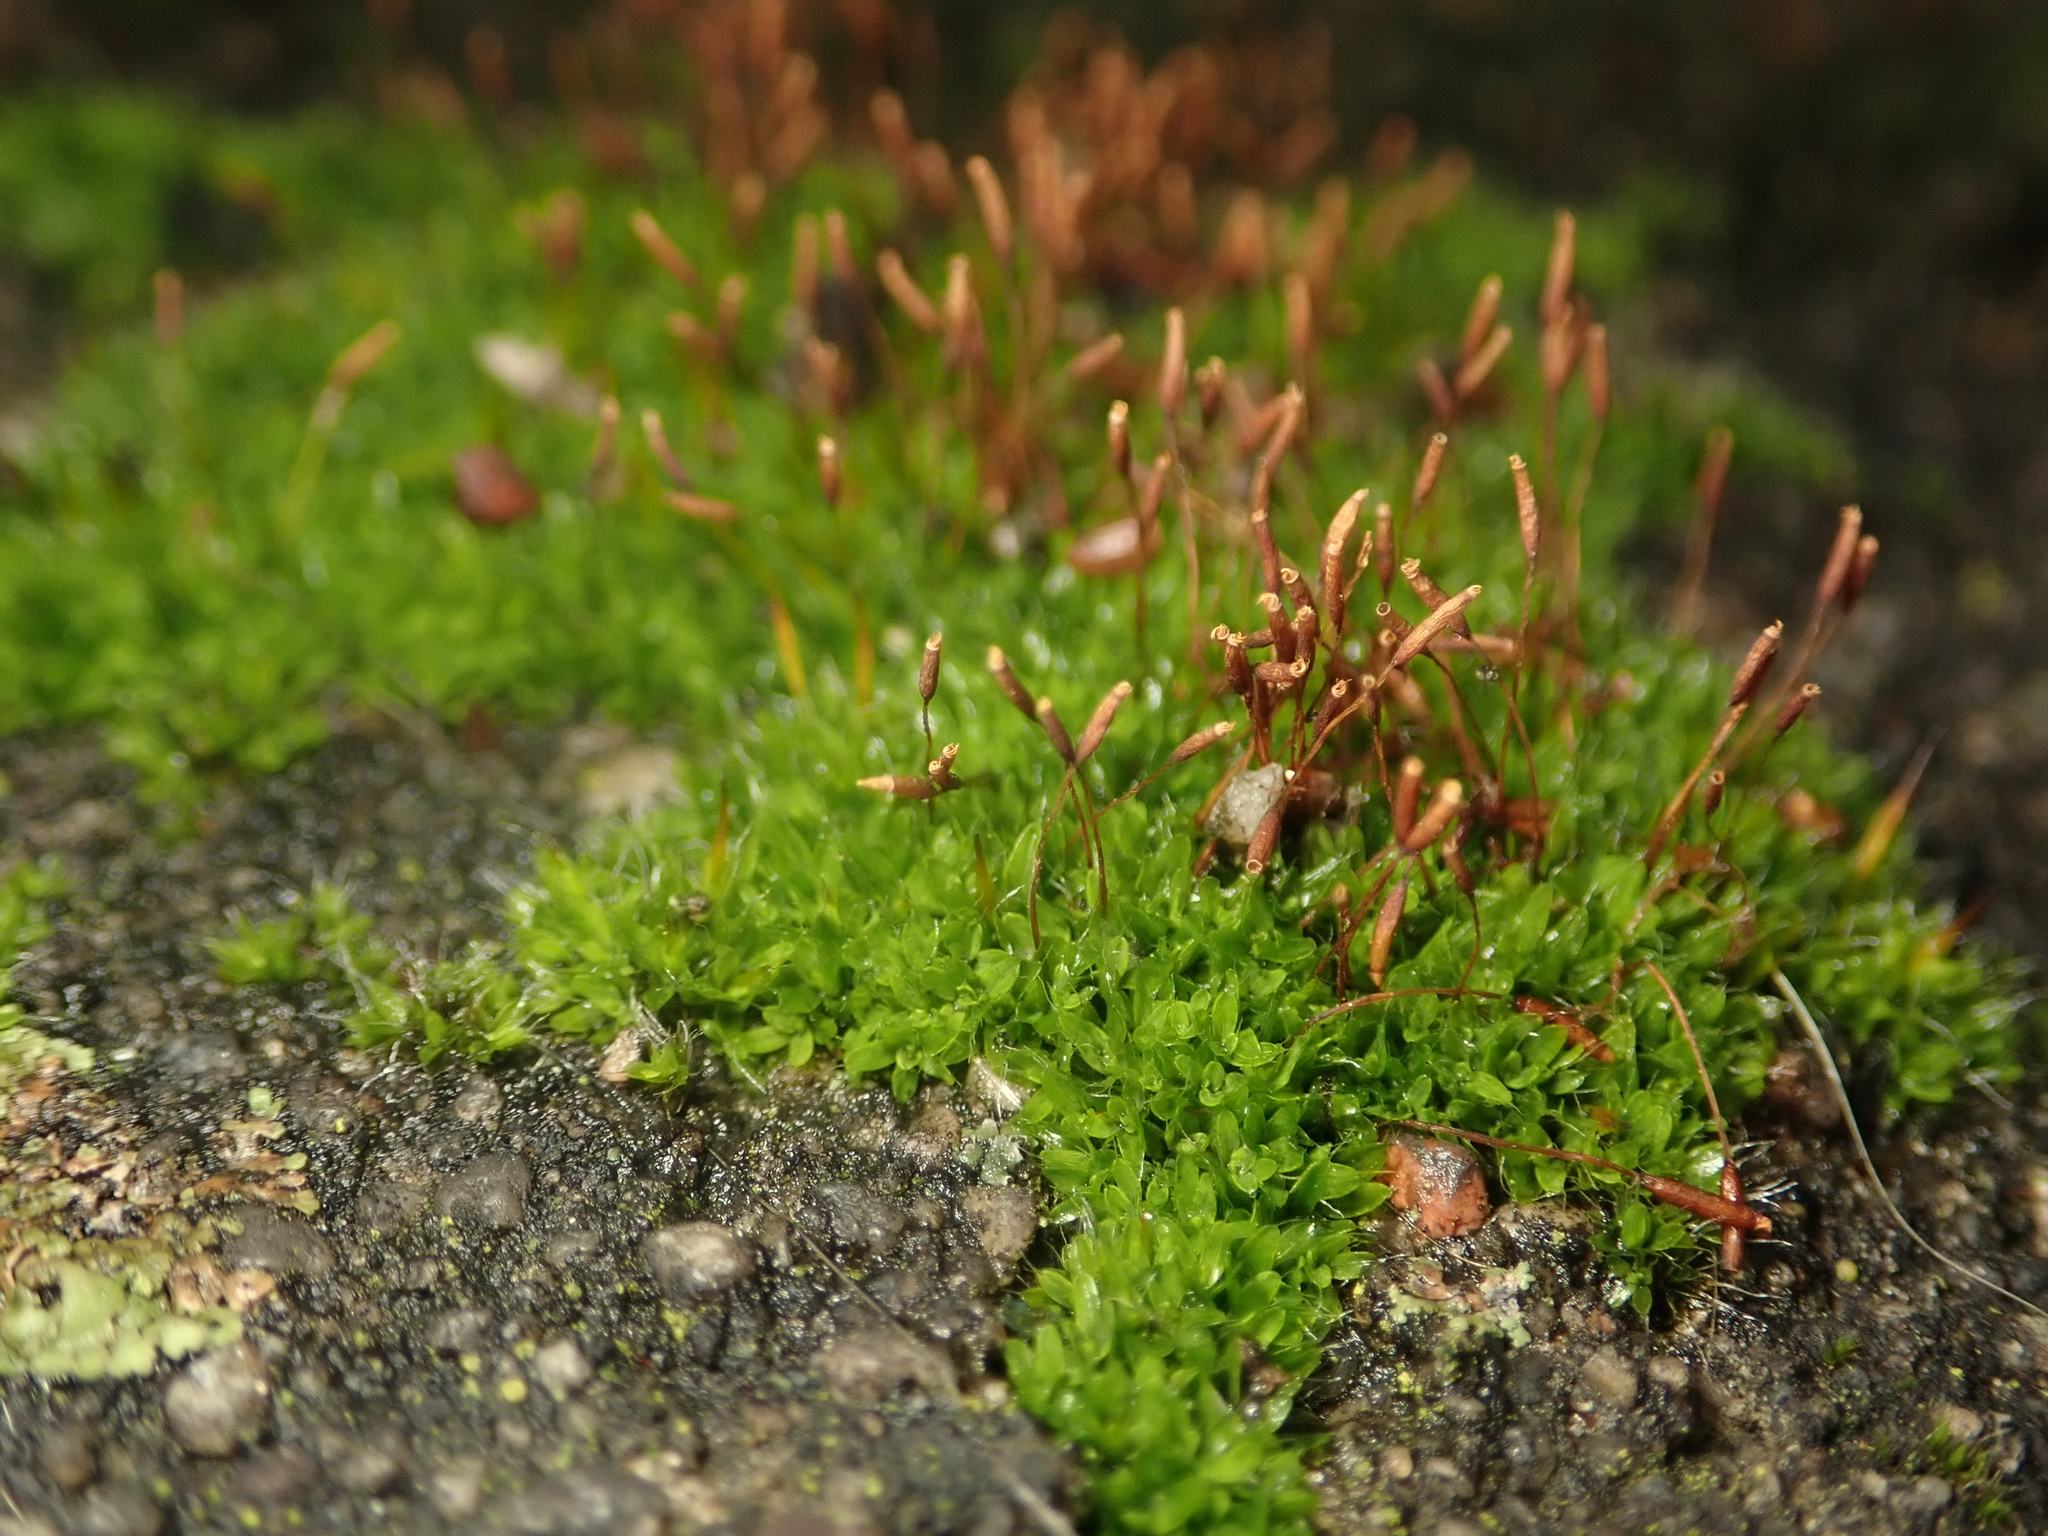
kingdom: Plantae
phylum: Bryophyta
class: Bryopsida
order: Pottiales
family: Pottiaceae
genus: Tortula
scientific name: Tortula muralis
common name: Wall screw-moss
